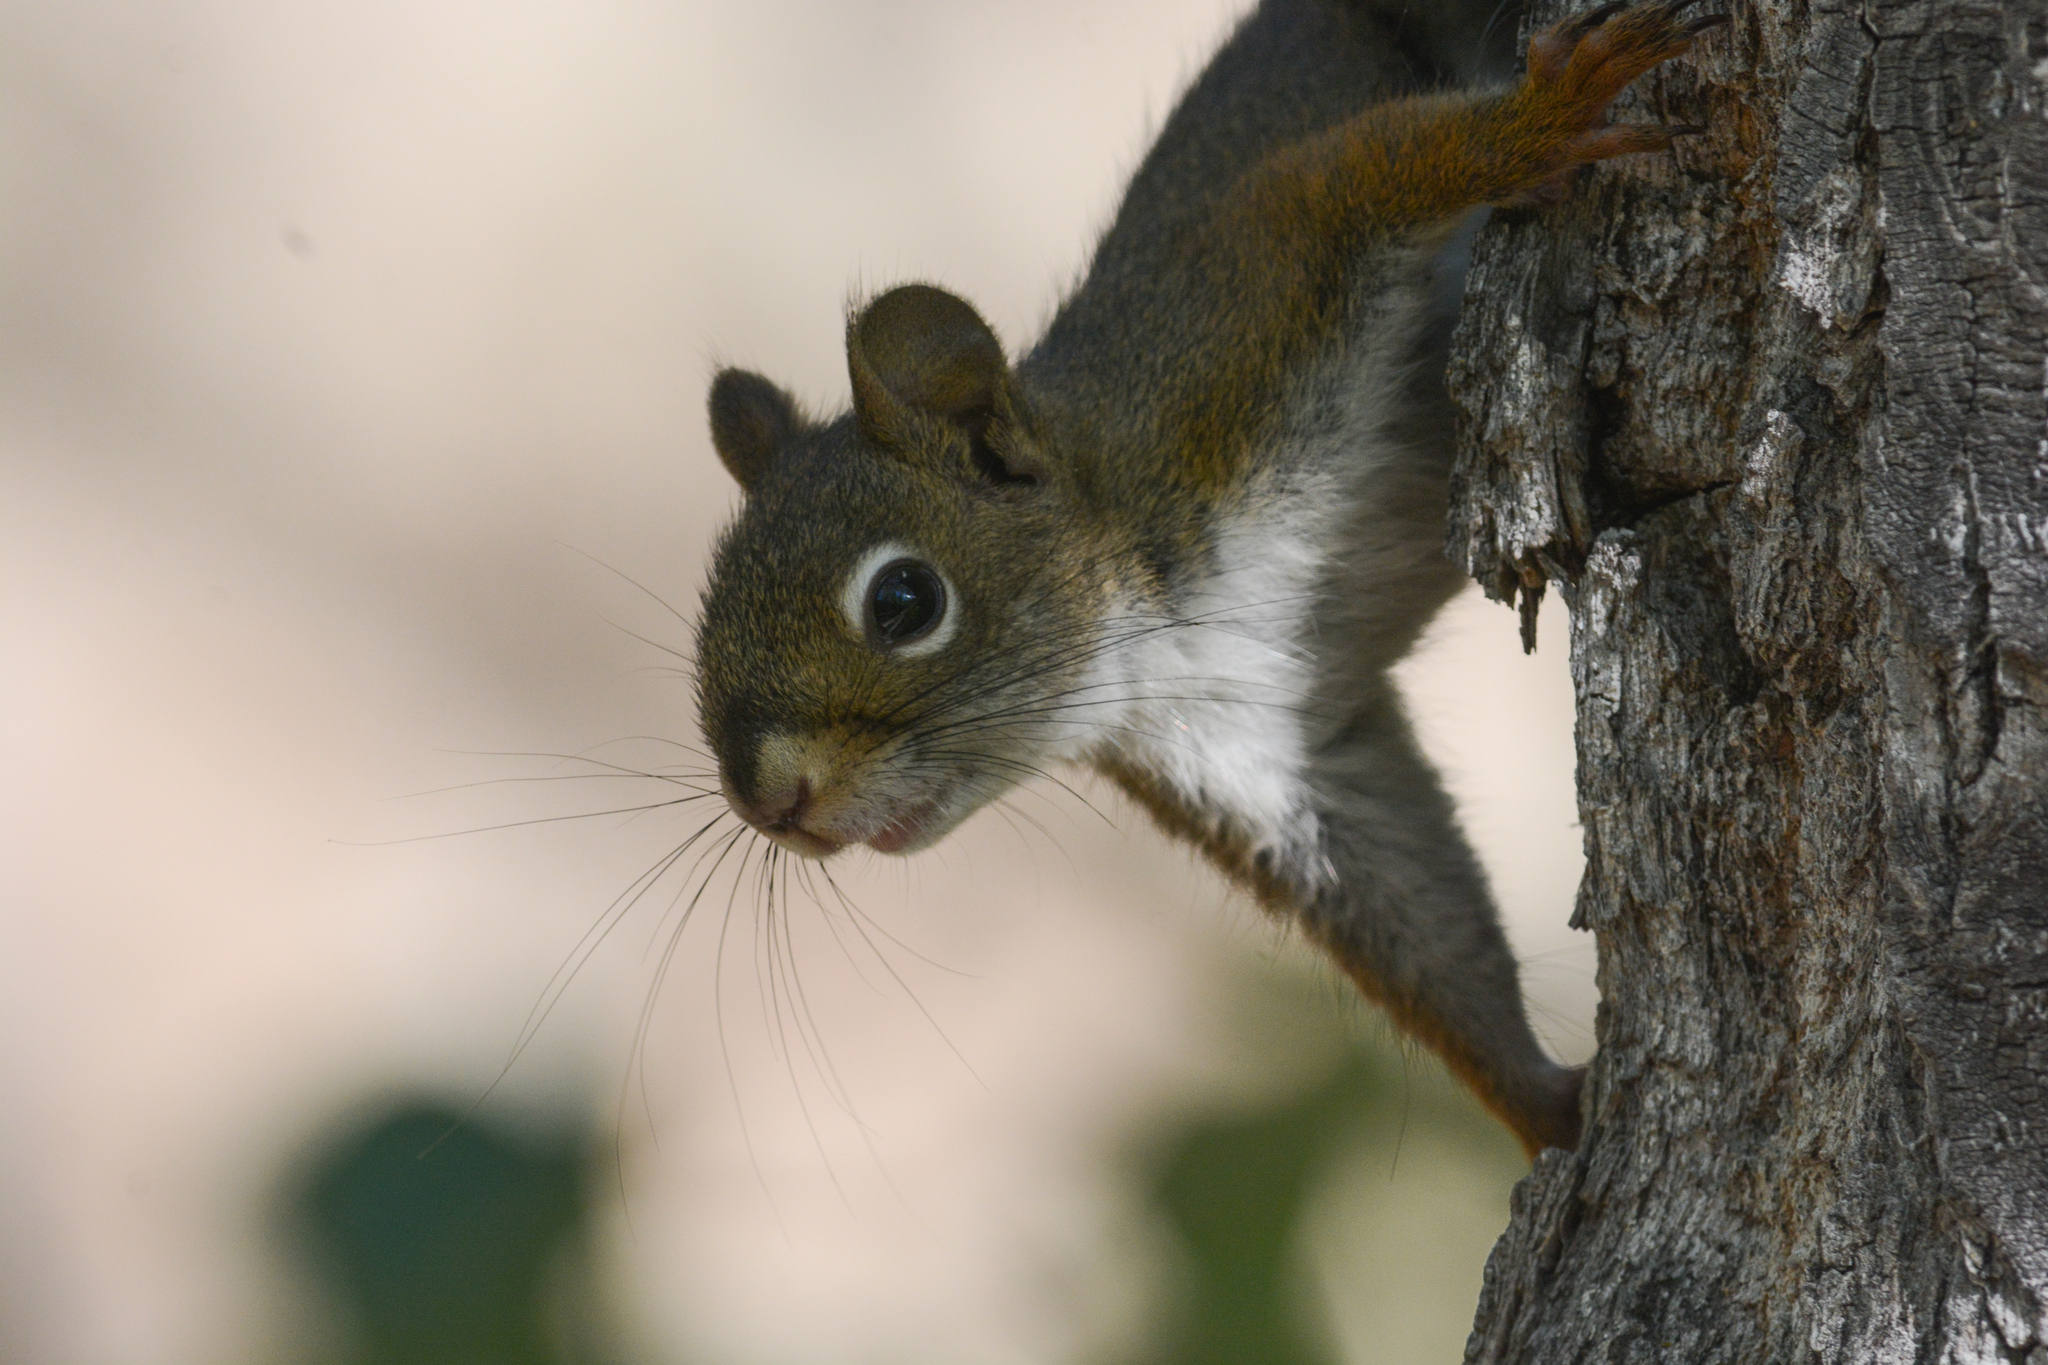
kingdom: Animalia
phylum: Chordata
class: Mammalia
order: Rodentia
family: Sciuridae
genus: Tamiasciurus
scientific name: Tamiasciurus hudsonicus
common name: Red squirrel
